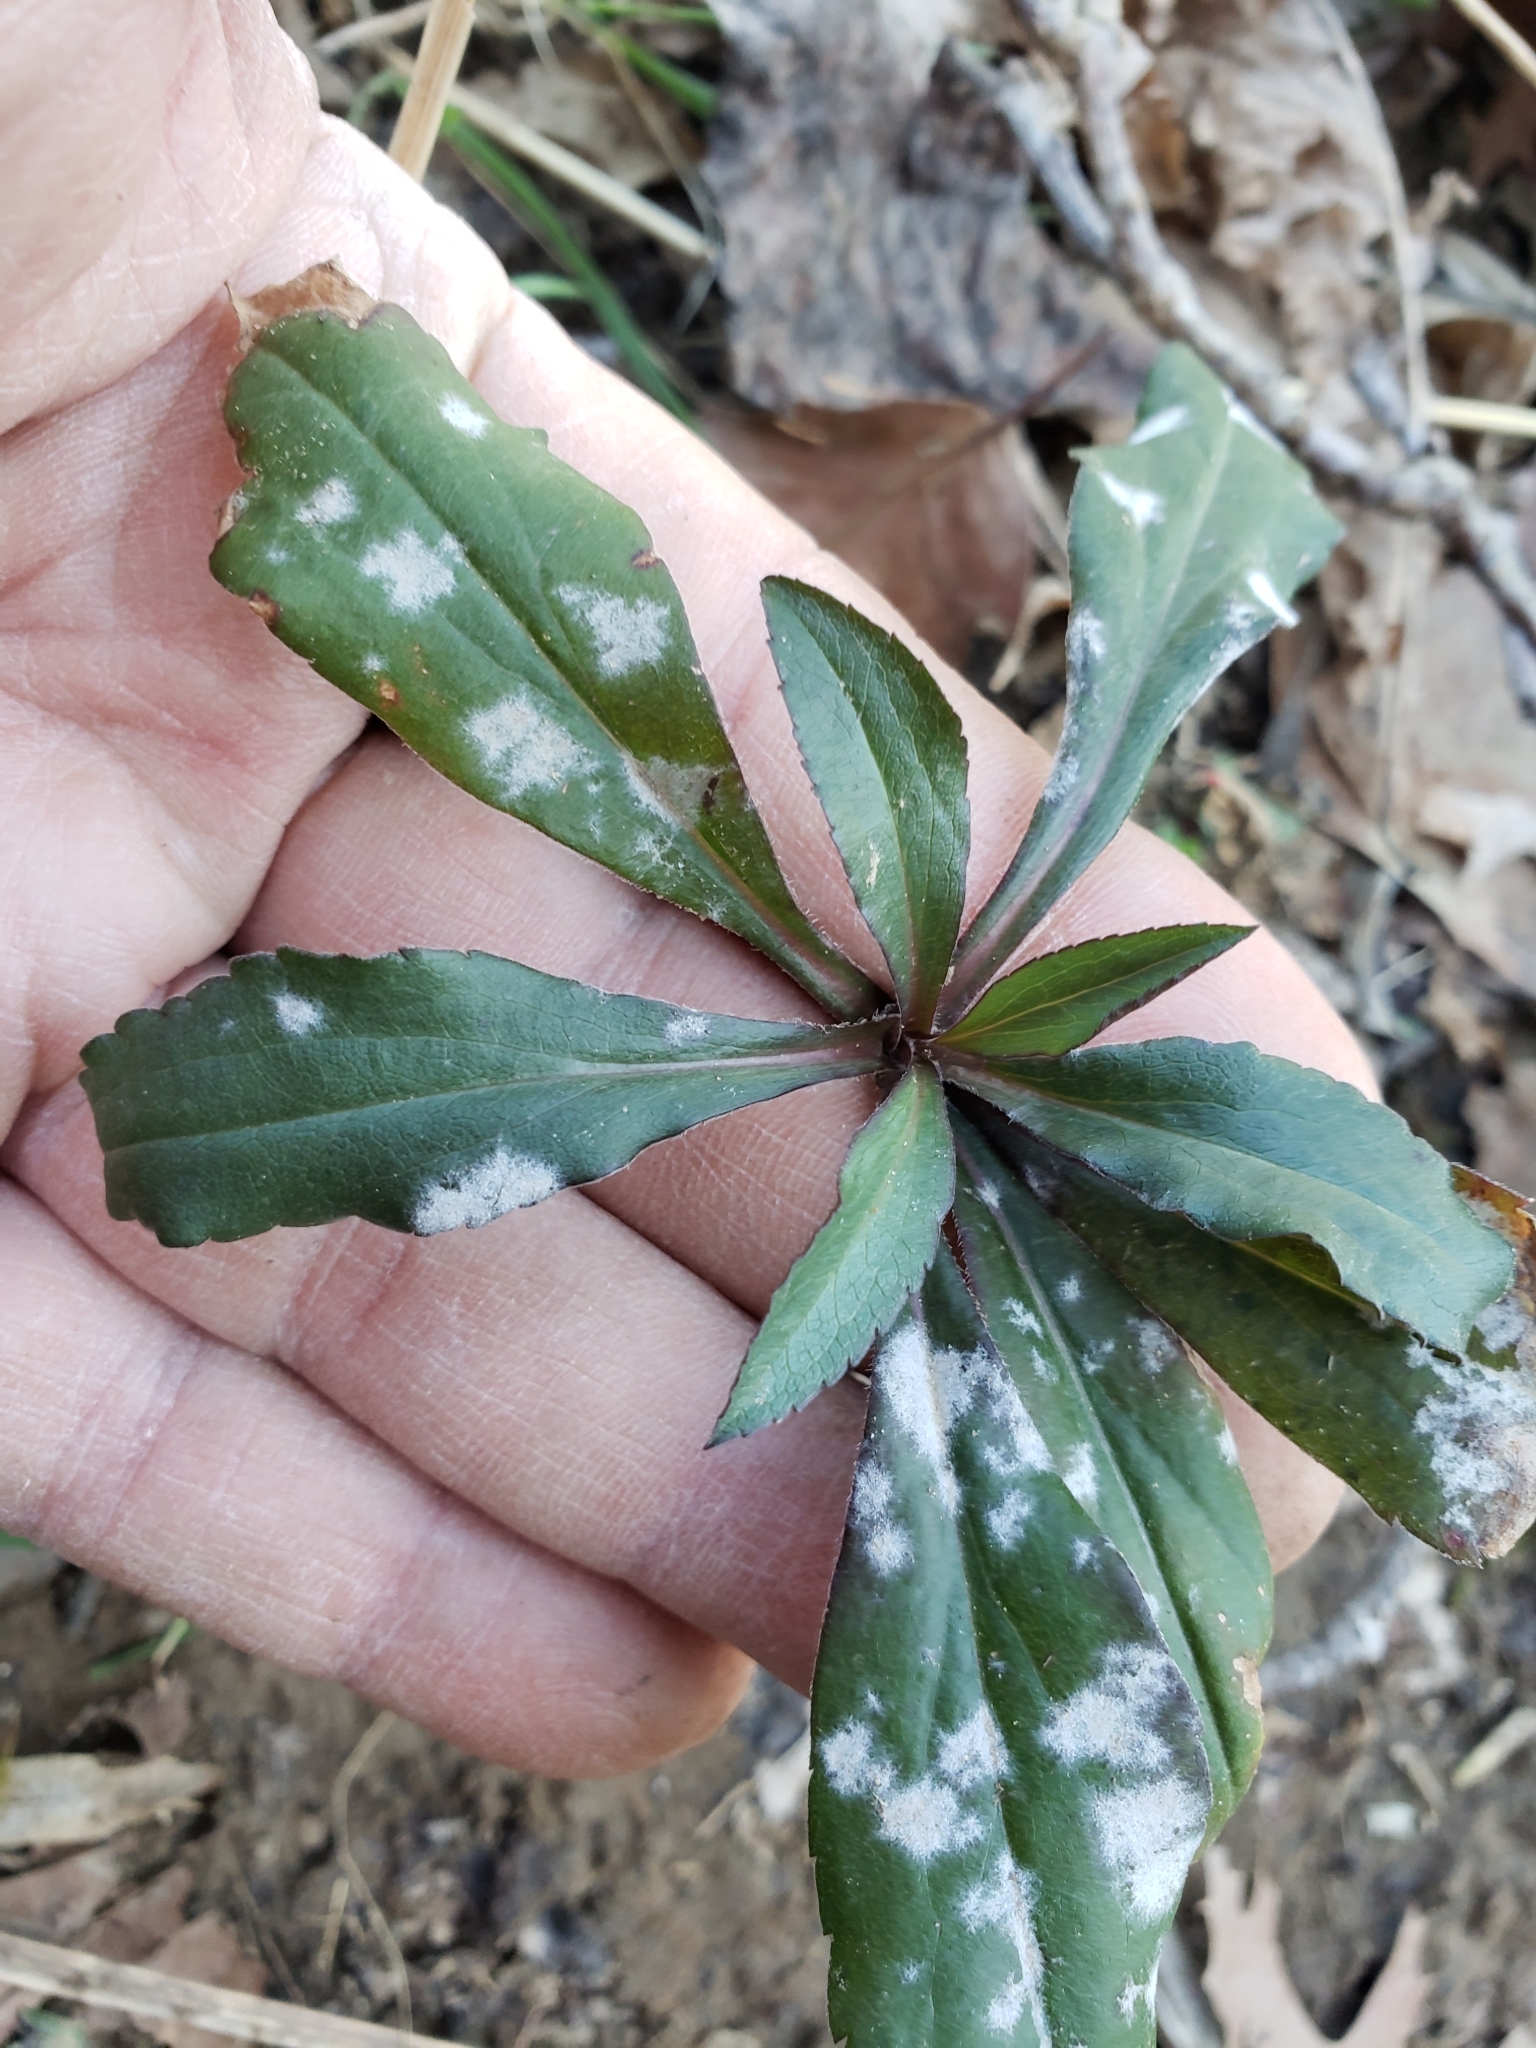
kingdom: Fungi
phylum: Ascomycota
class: Leotiomycetes
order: Helotiales
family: Erysiphaceae
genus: Golovinomyces
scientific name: Golovinomyces asterum
